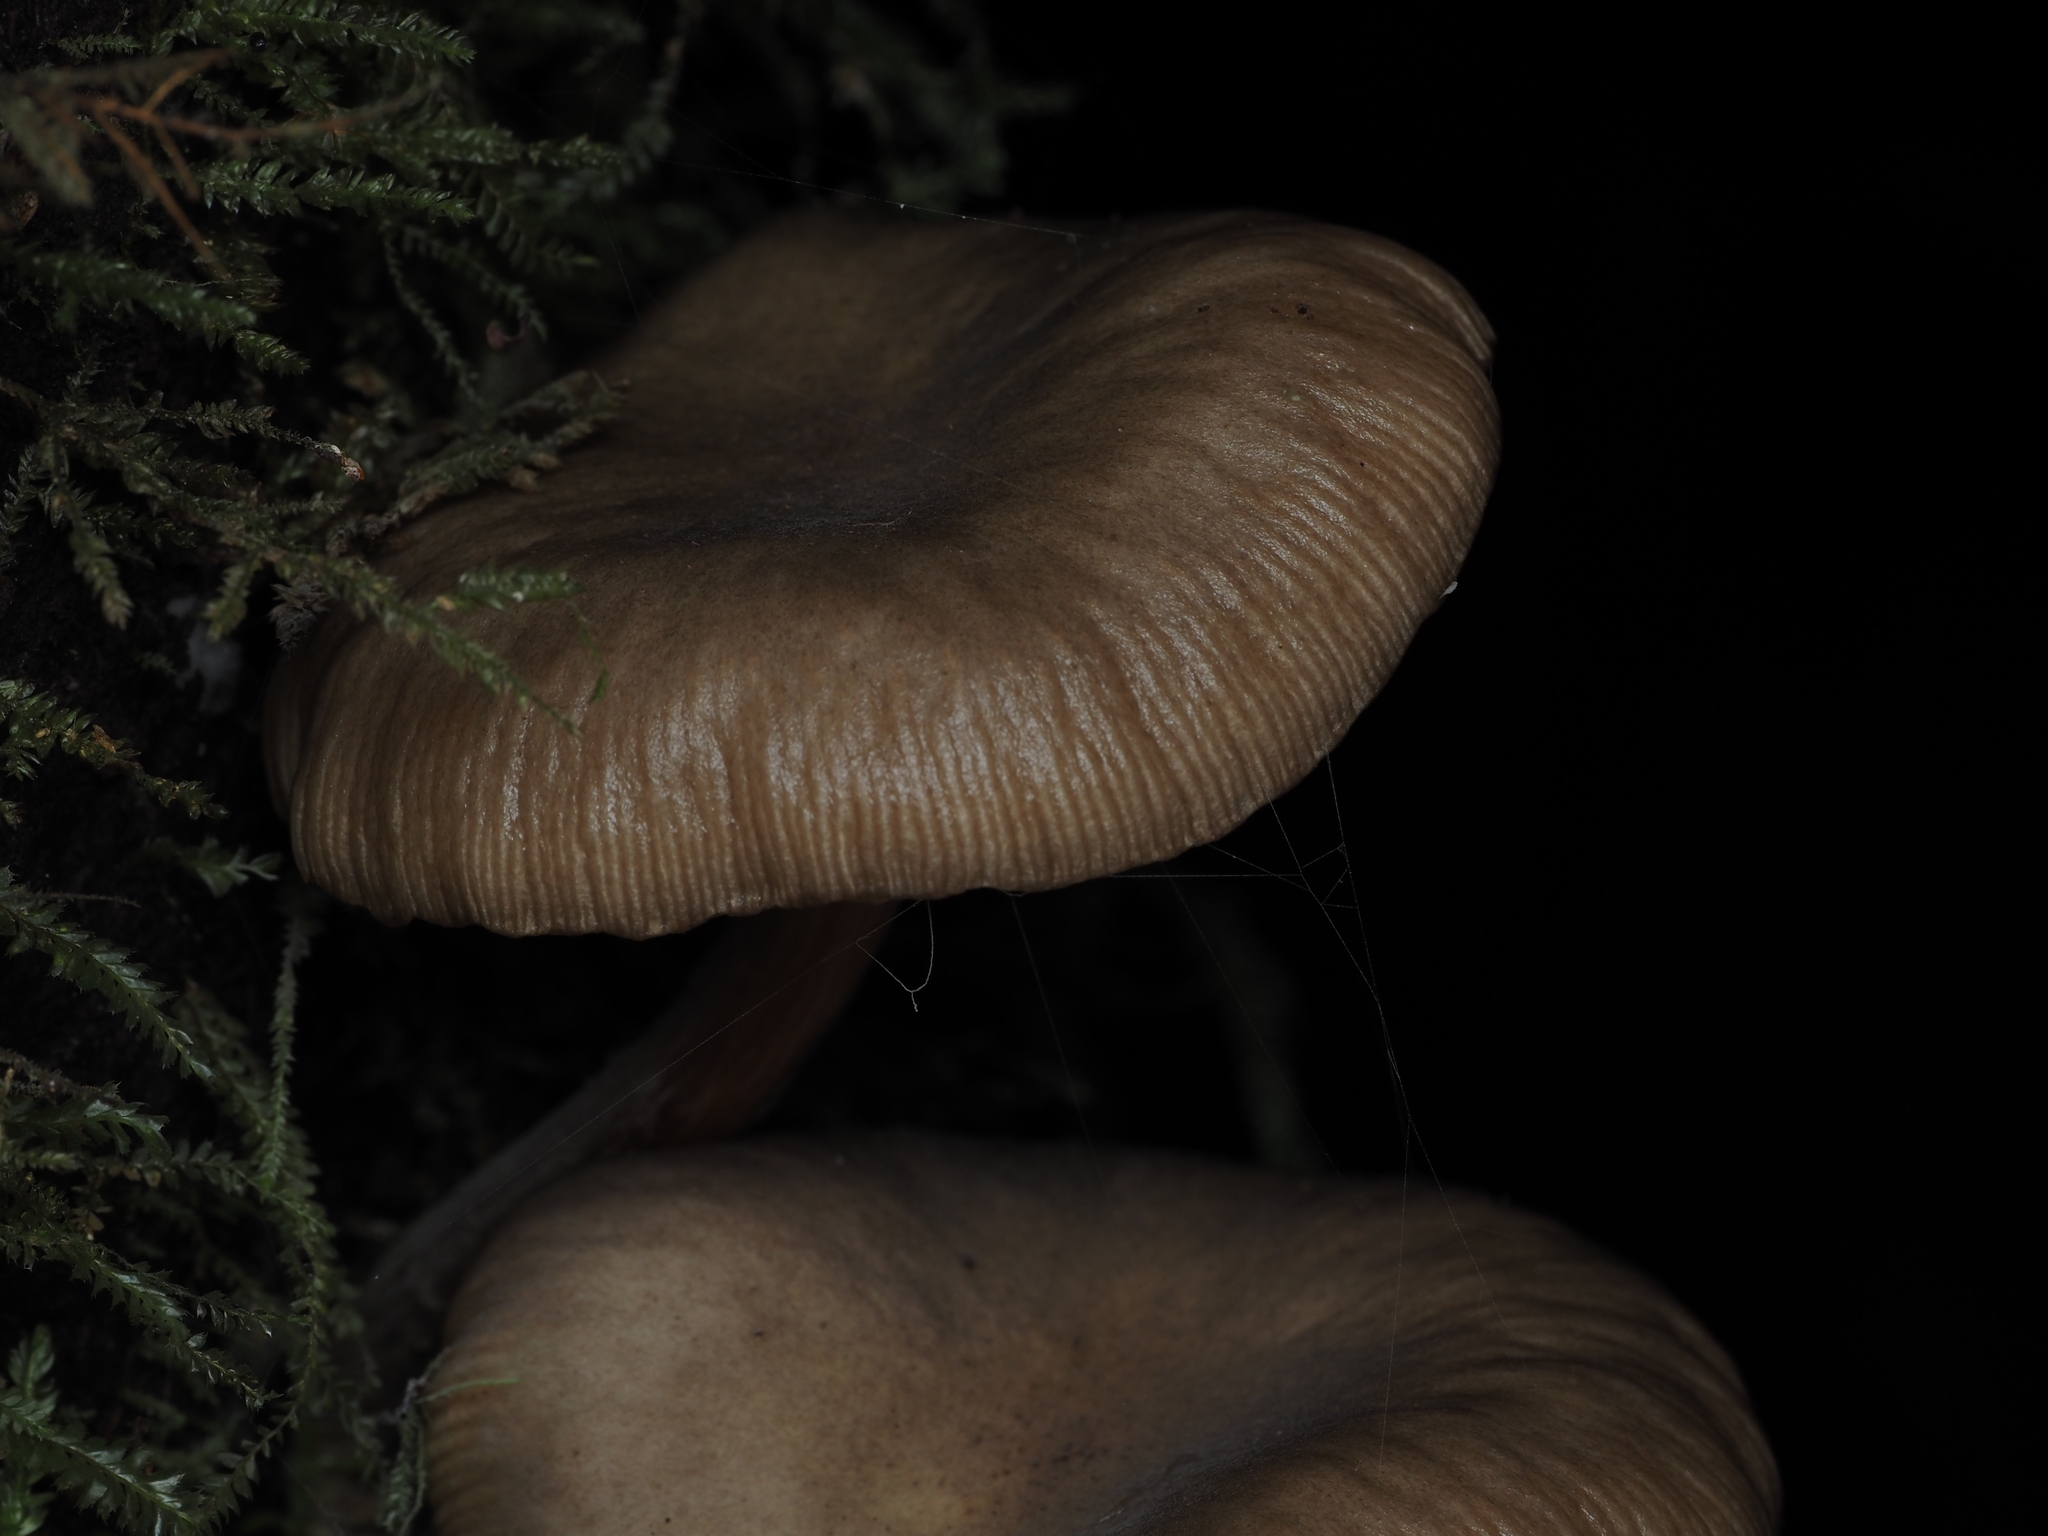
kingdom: Fungi
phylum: Basidiomycota
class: Agaricomycetes
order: Agaricales
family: Physalacriaceae
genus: Armillaria
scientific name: Armillaria novae-zelandiae
